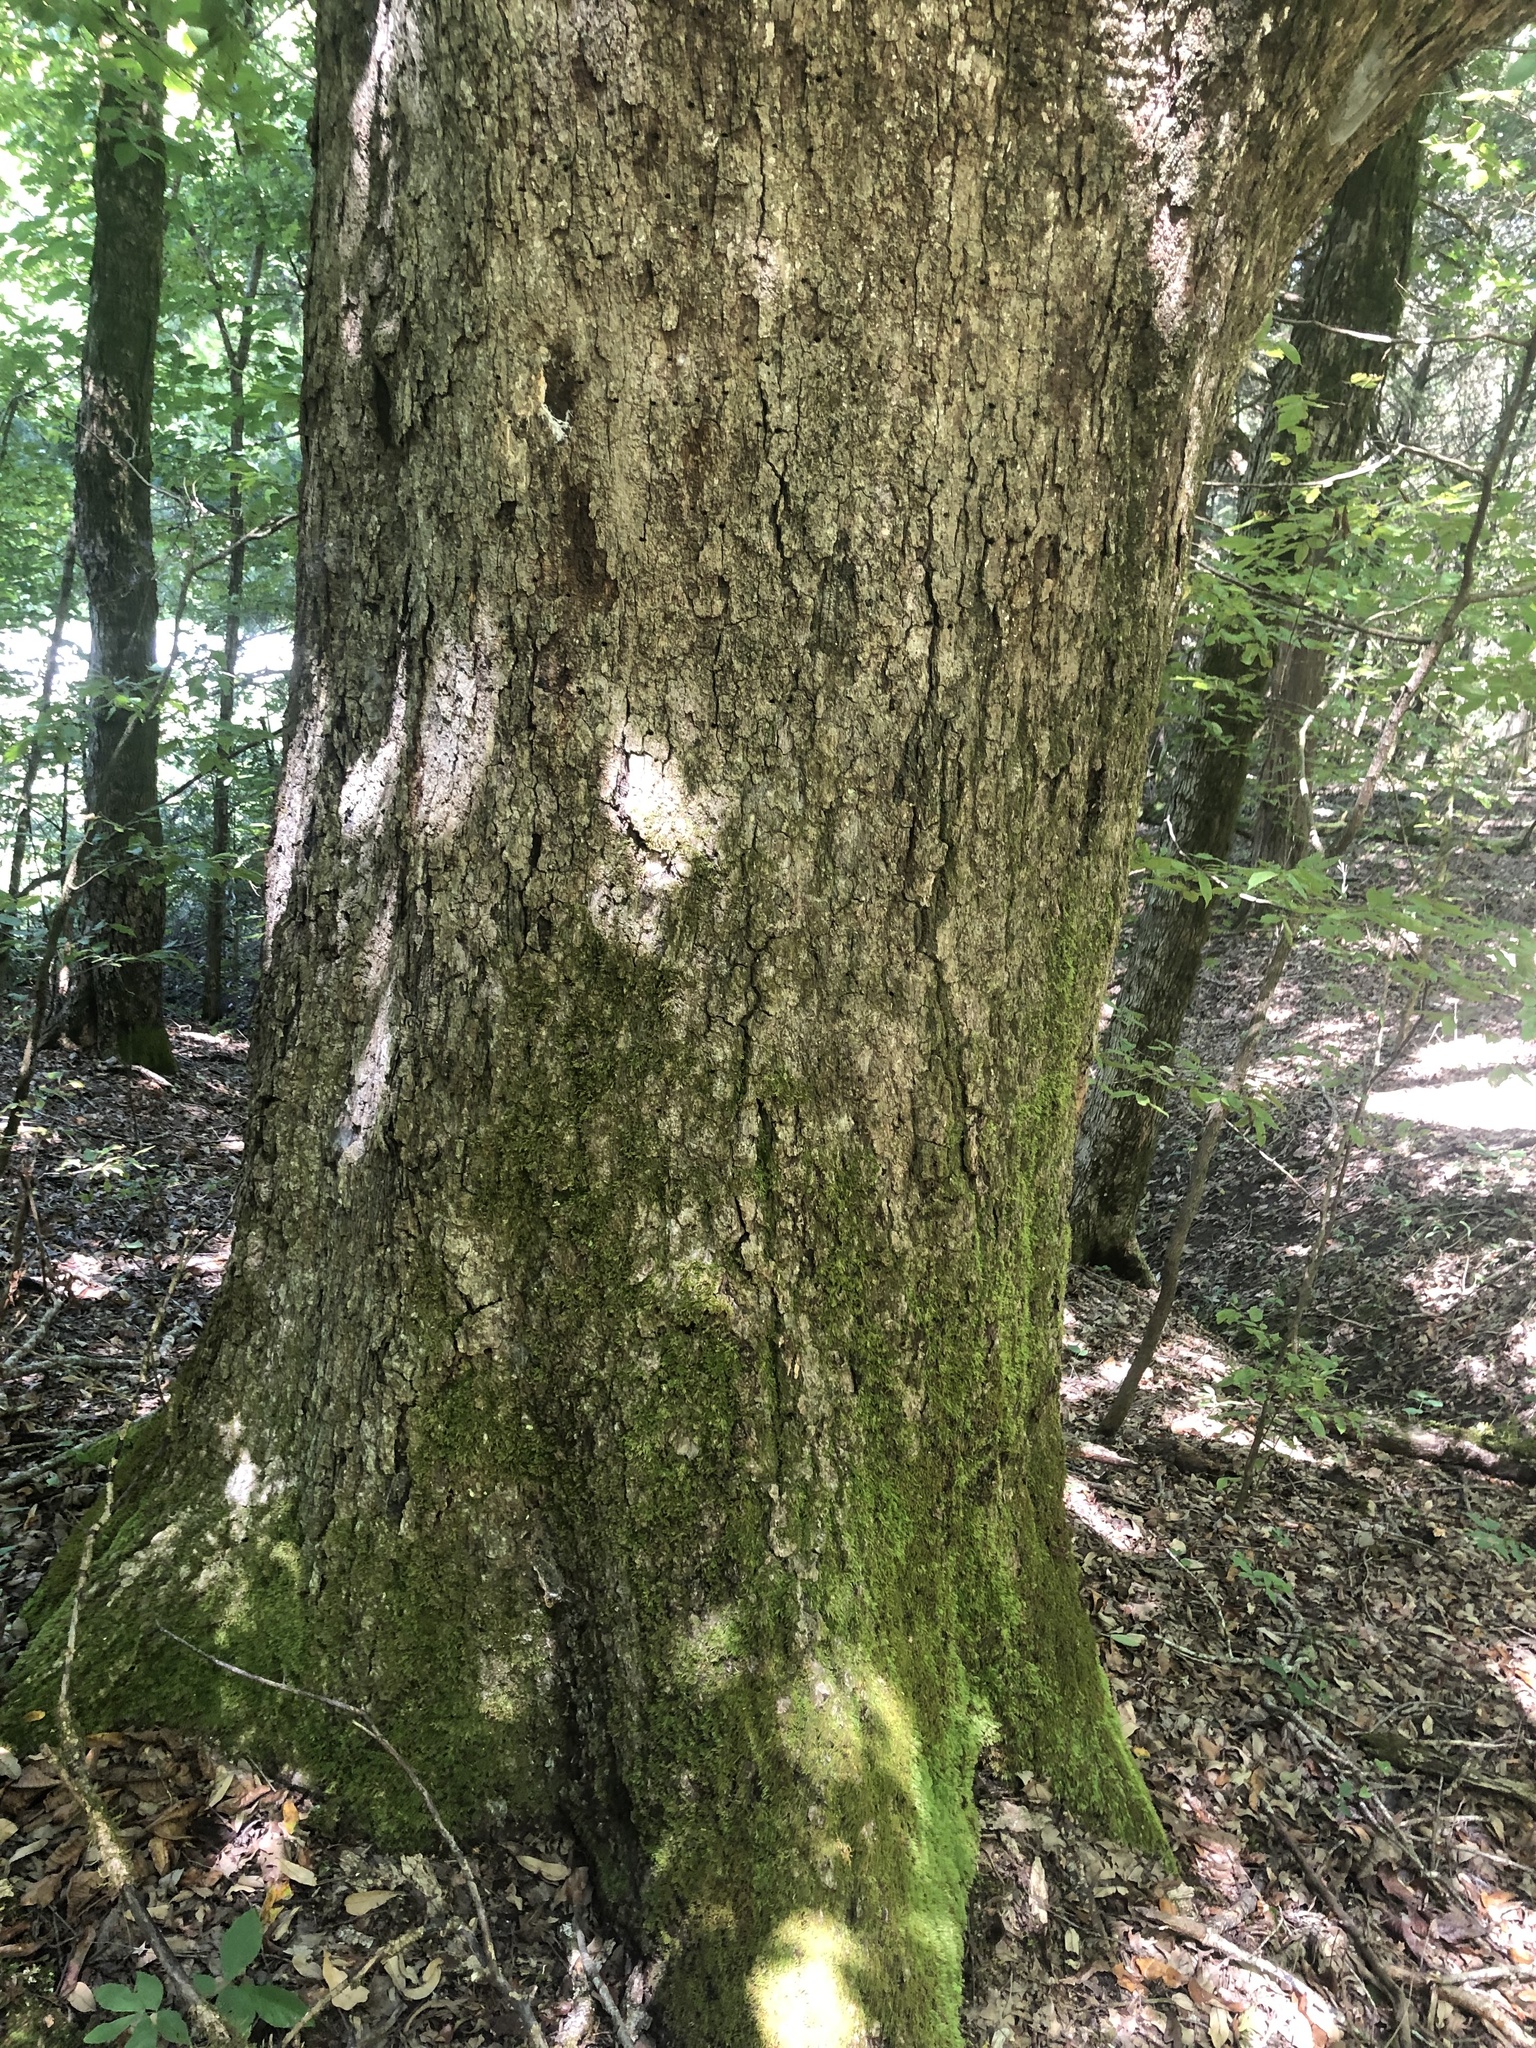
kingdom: Plantae
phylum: Tracheophyta
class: Magnoliopsida
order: Fagales
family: Fagaceae
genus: Quercus
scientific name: Quercus sinuata
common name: Durand oak
